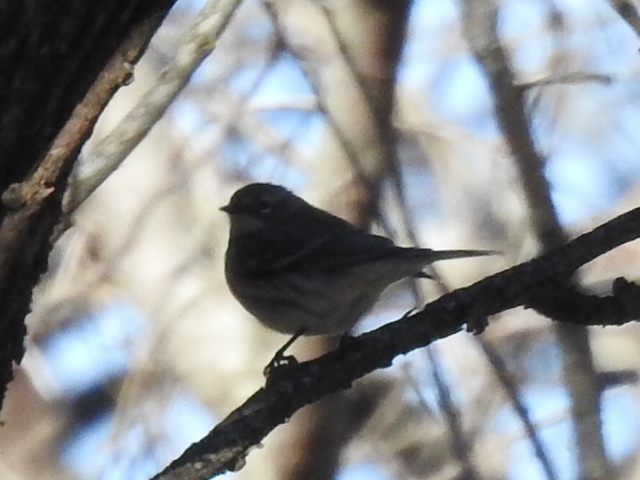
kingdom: Animalia
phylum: Chordata
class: Aves
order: Passeriformes
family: Parulidae
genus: Setophaga
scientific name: Setophaga coronata
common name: Myrtle warbler
